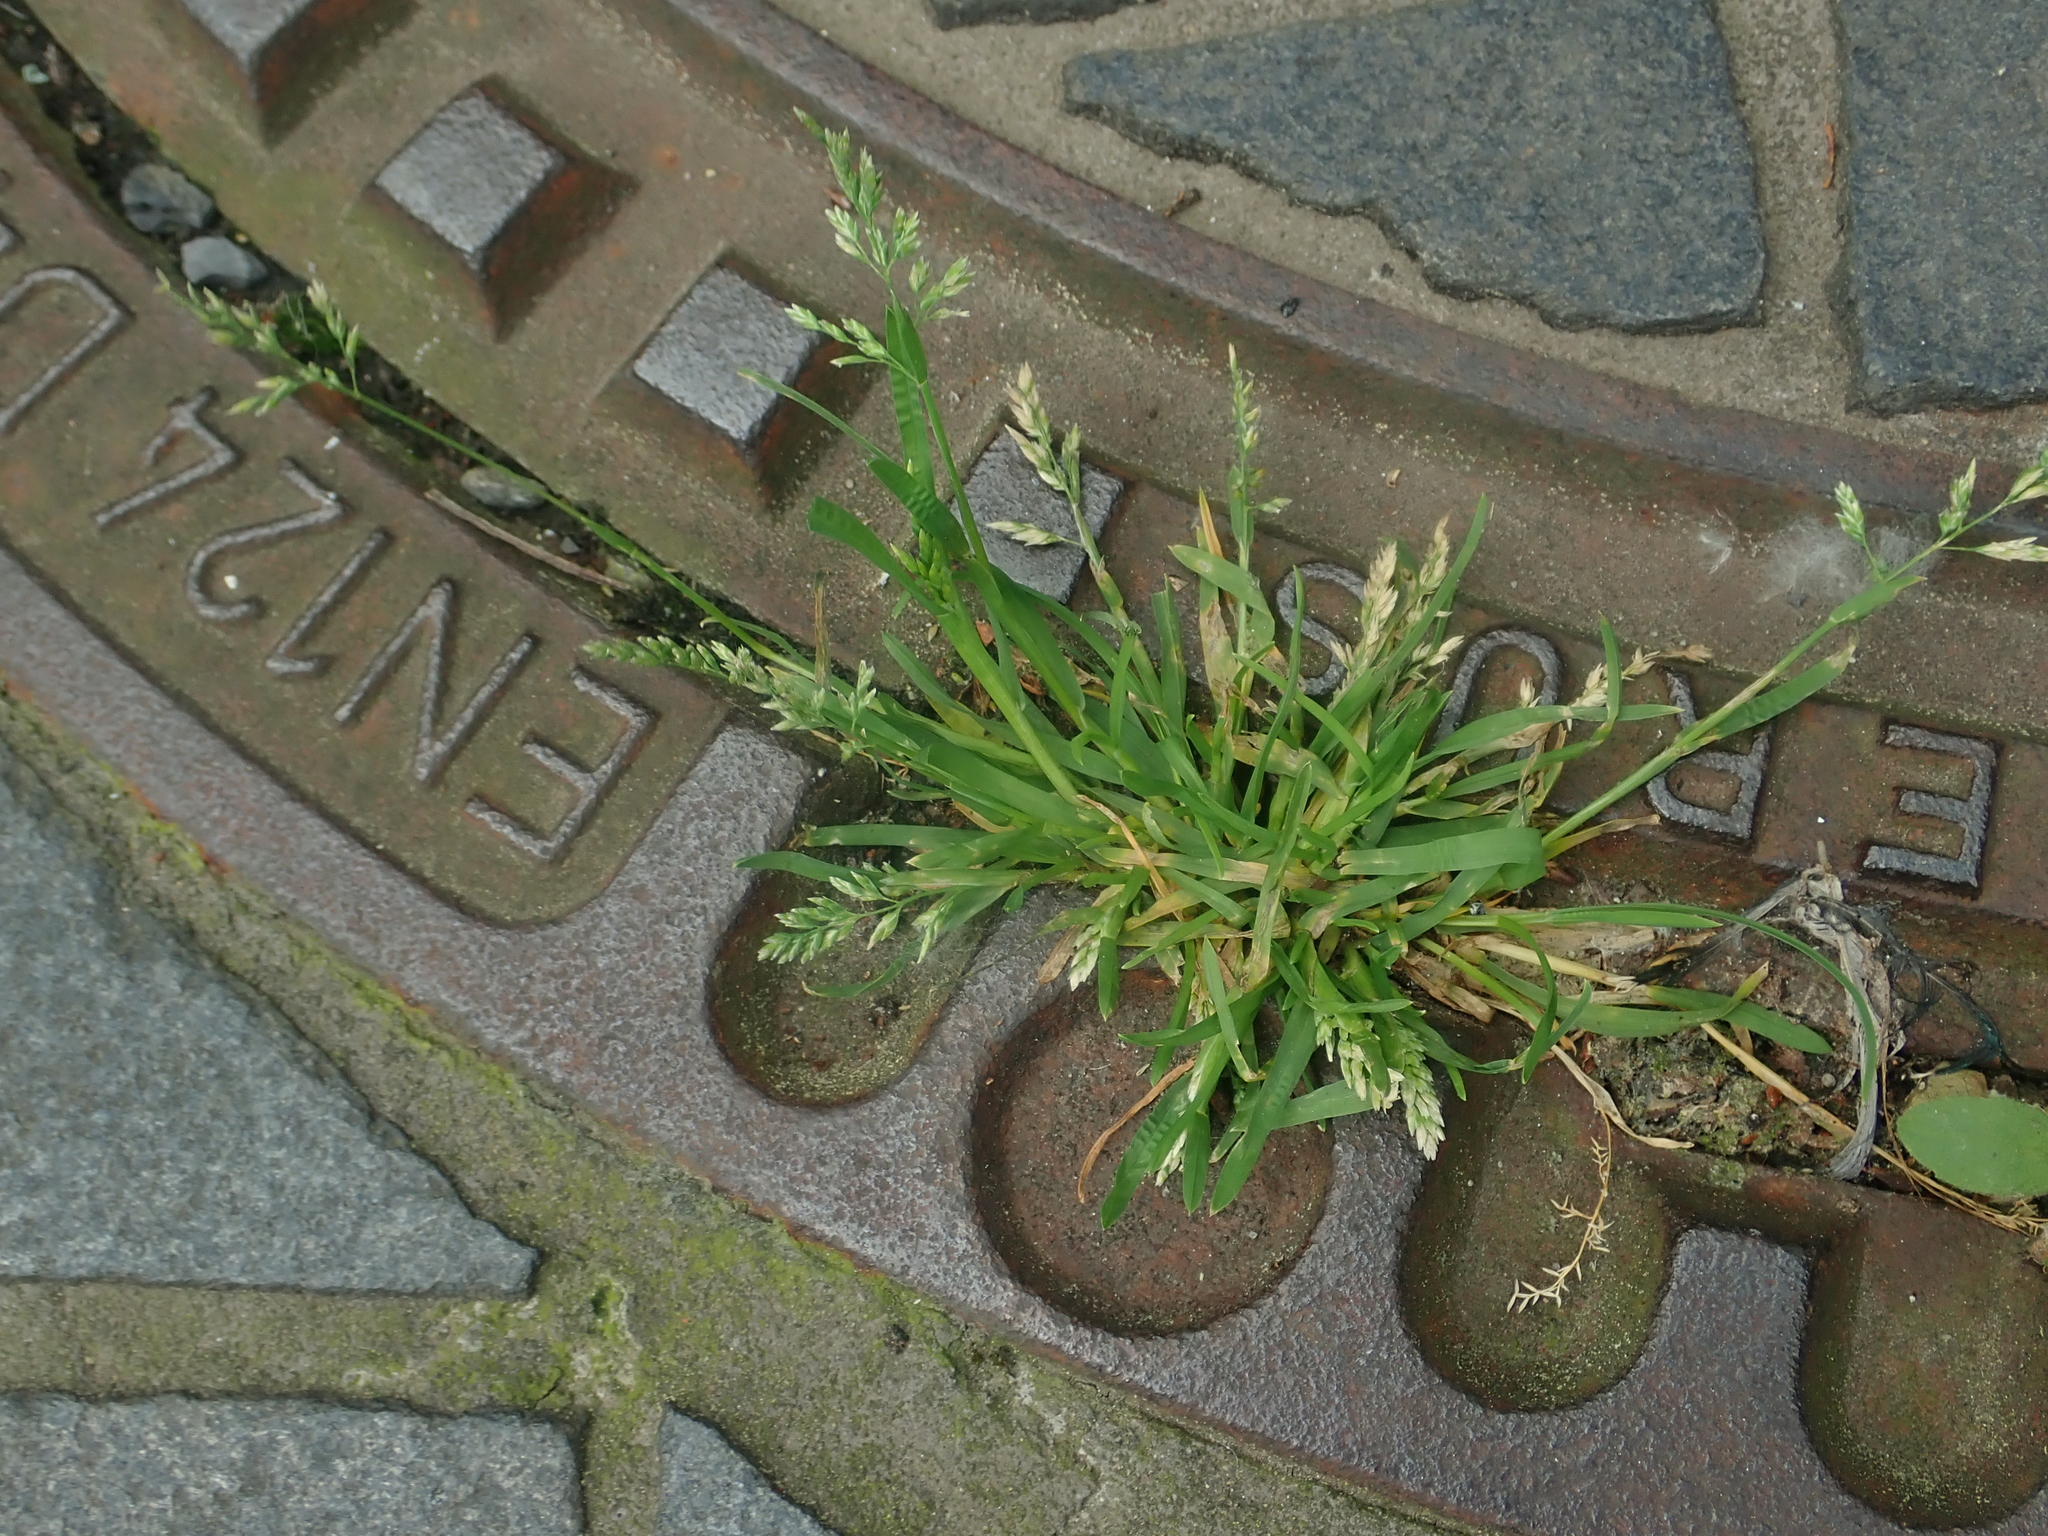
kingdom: Plantae
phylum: Tracheophyta
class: Liliopsida
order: Poales
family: Poaceae
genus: Poa
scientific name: Poa annua
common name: Annual bluegrass
